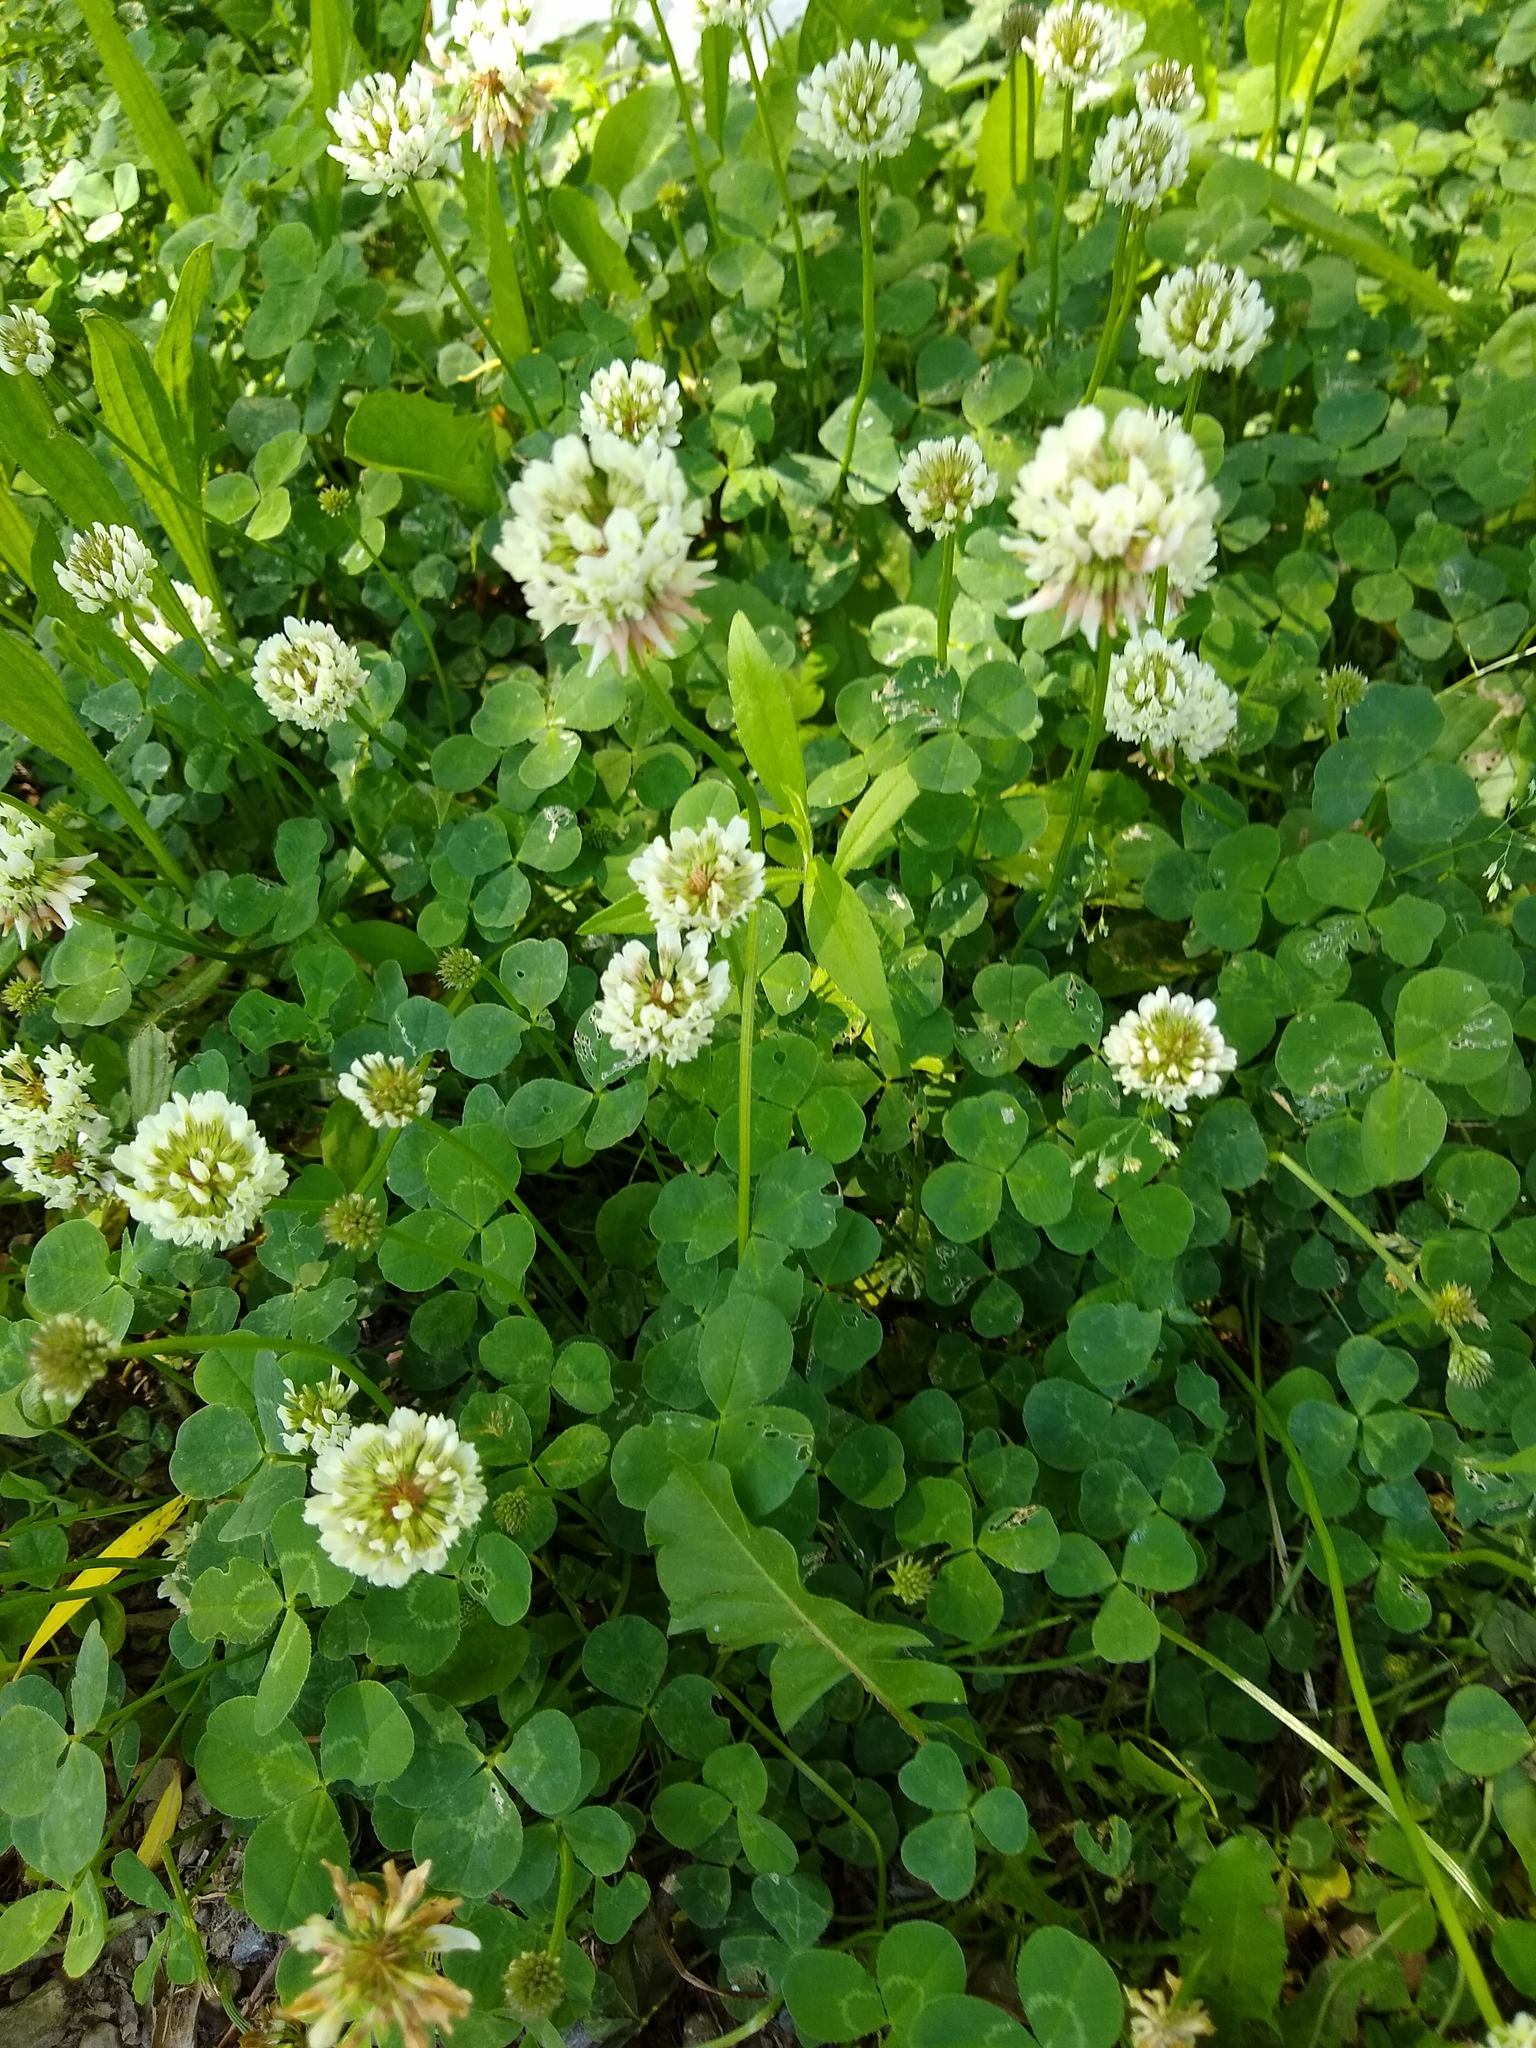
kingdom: Plantae
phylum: Tracheophyta
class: Magnoliopsida
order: Fabales
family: Fabaceae
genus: Trifolium
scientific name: Trifolium repens
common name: White clover
